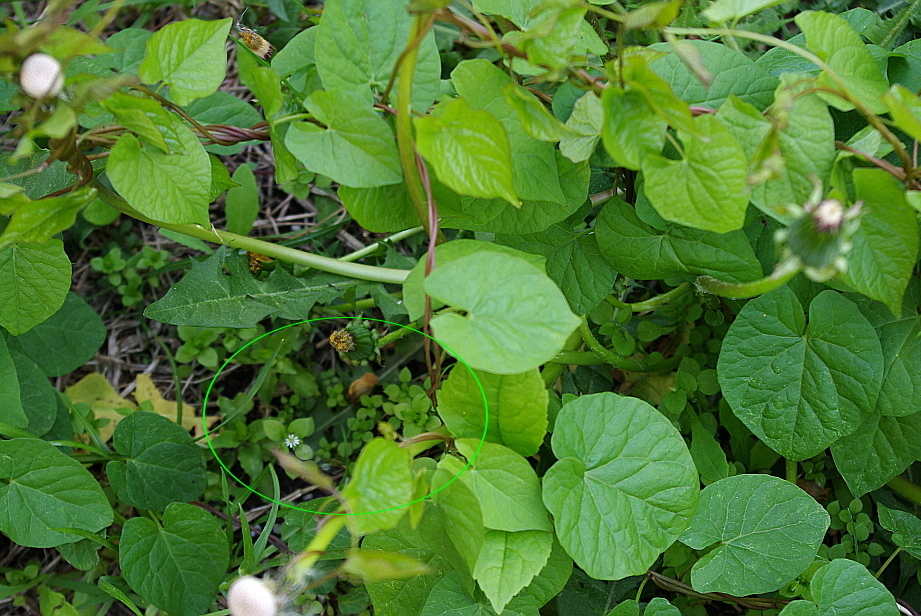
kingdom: Plantae
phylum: Tracheophyta
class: Magnoliopsida
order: Caryophyllales
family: Caryophyllaceae
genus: Stellaria
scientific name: Stellaria media
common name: Common chickweed
